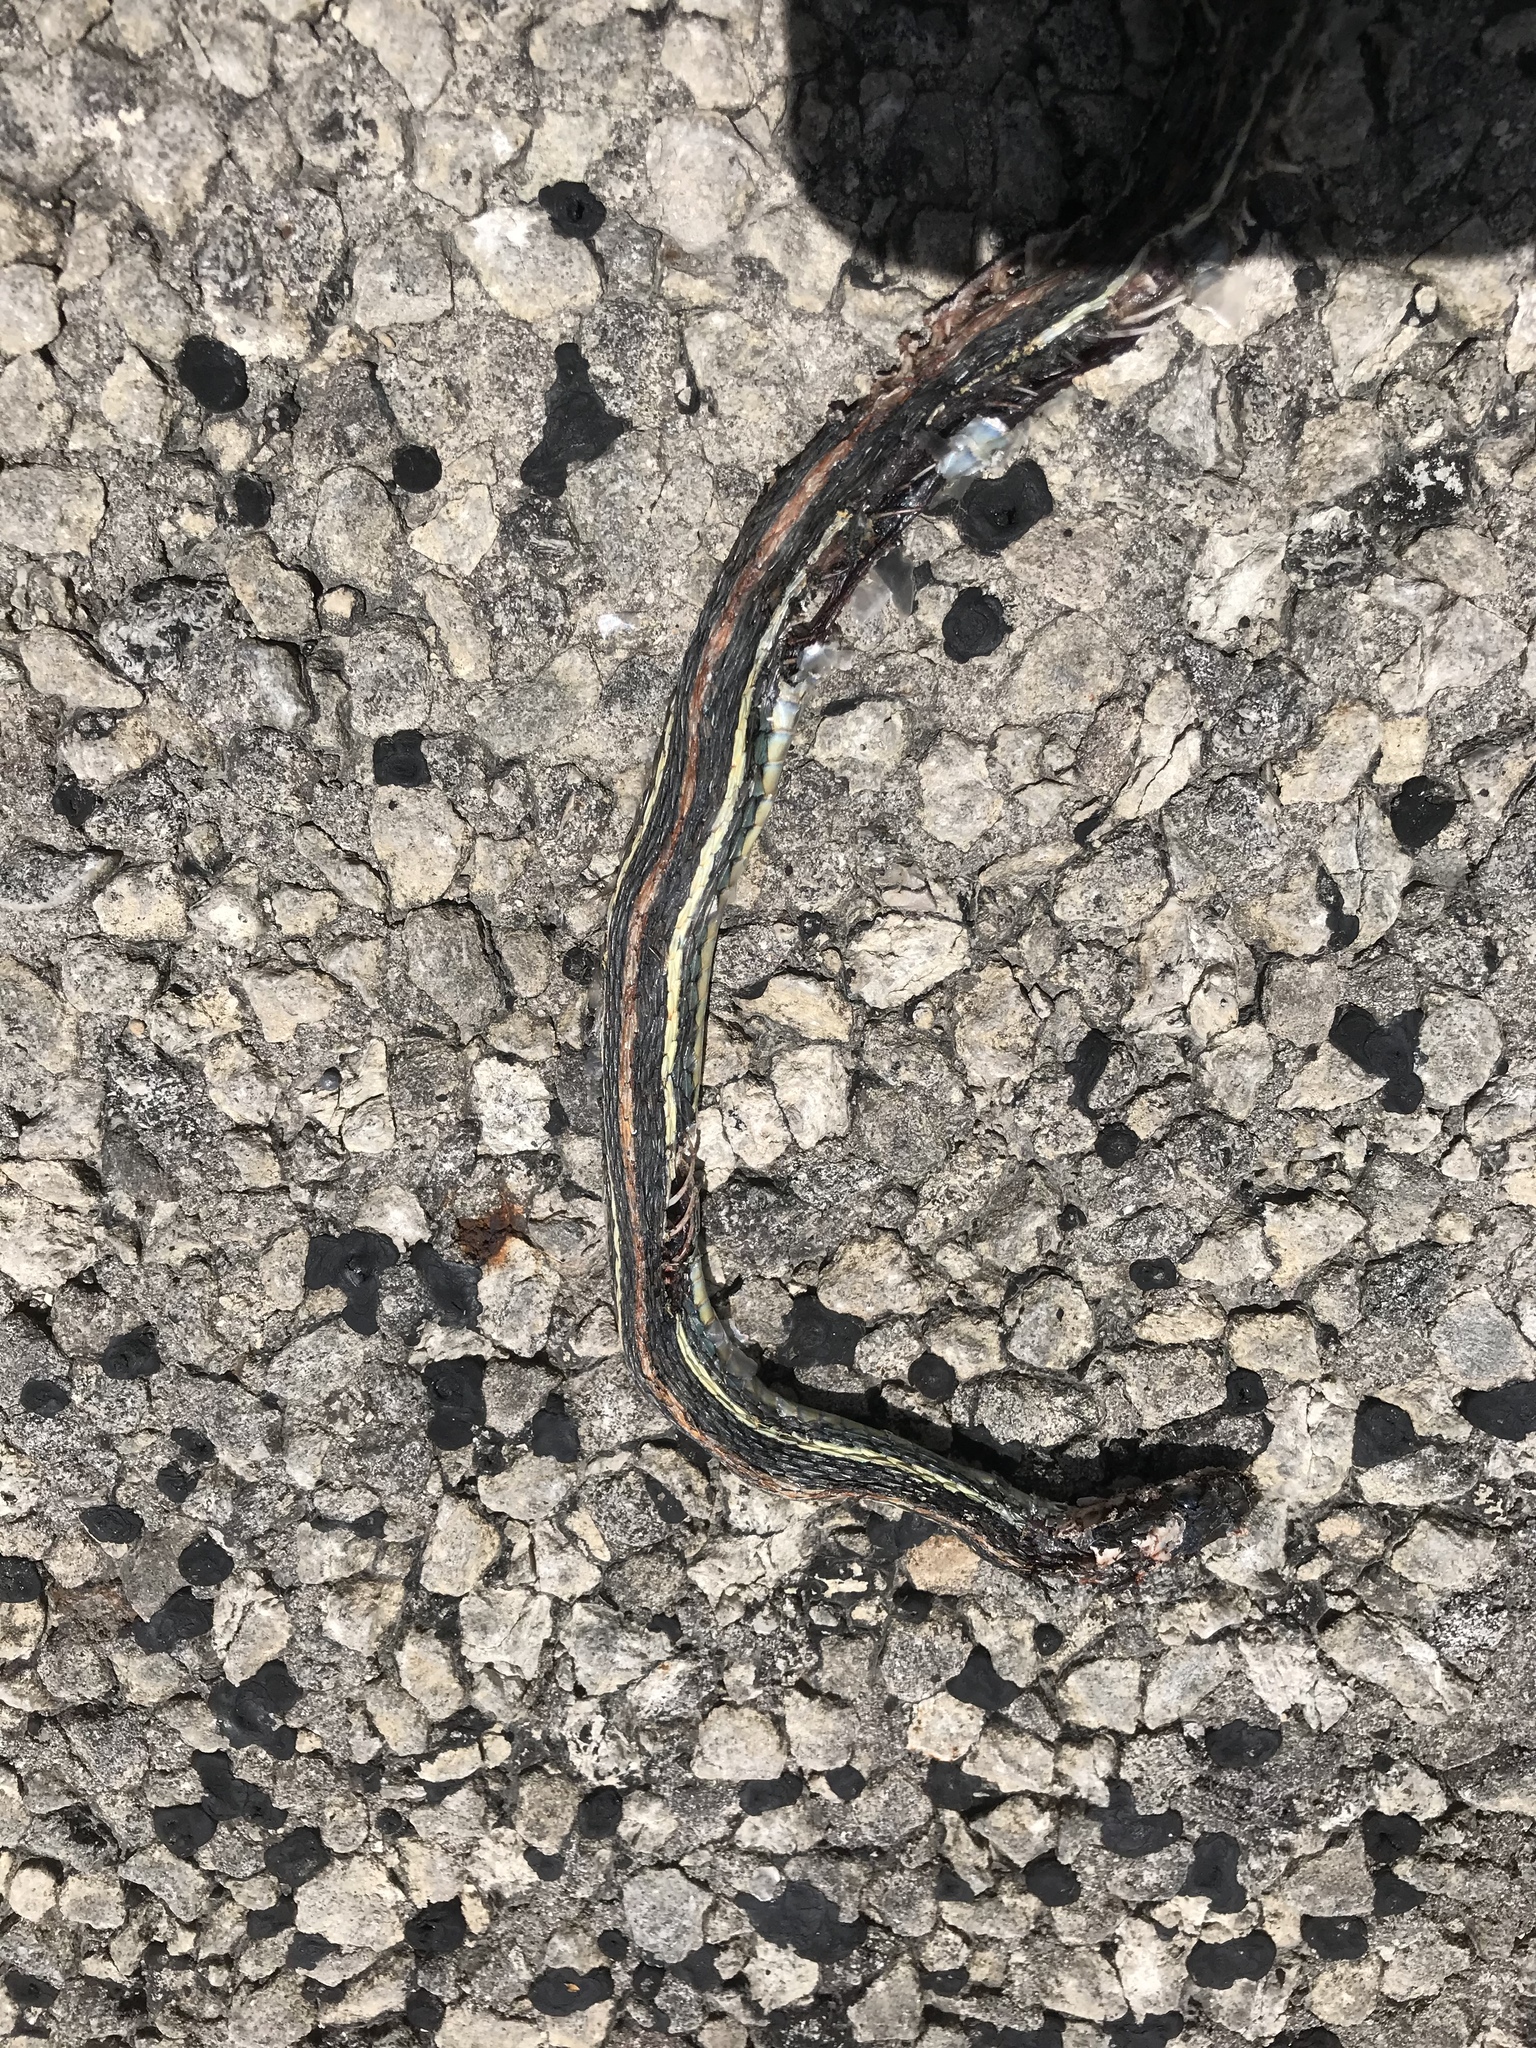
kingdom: Animalia
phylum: Chordata
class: Squamata
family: Colubridae
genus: Thamnophis
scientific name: Thamnophis proximus
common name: Western ribbon snake
